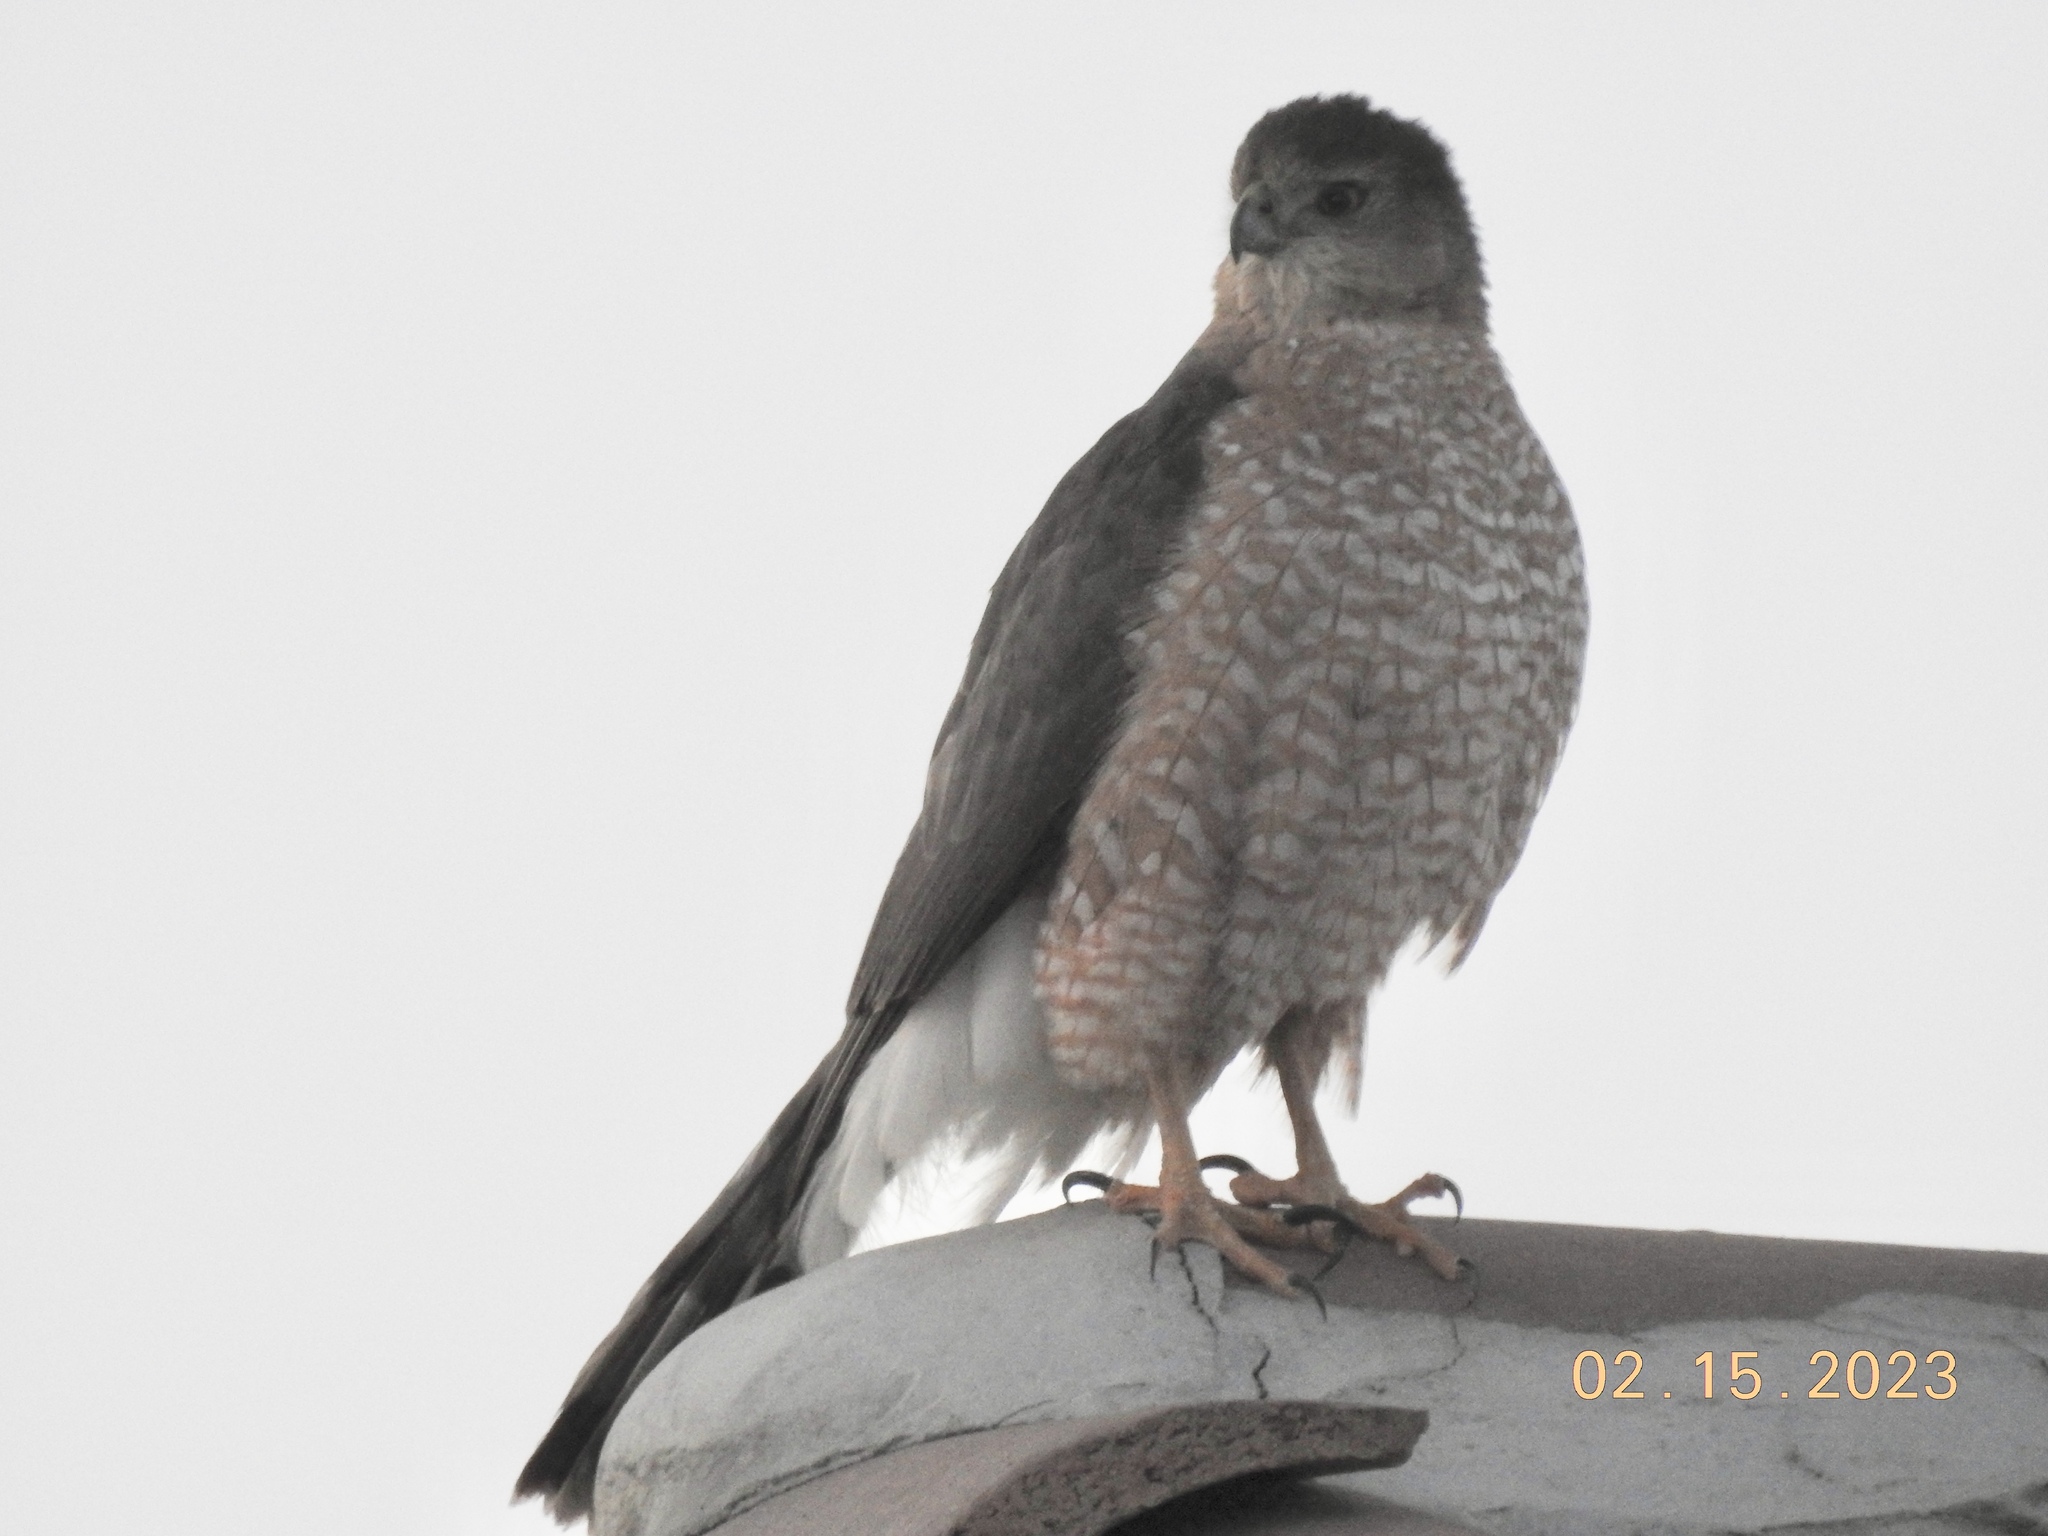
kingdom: Animalia
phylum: Chordata
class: Aves
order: Accipitriformes
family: Accipitridae
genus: Accipiter
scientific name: Accipiter cooperii
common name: Cooper's hawk
